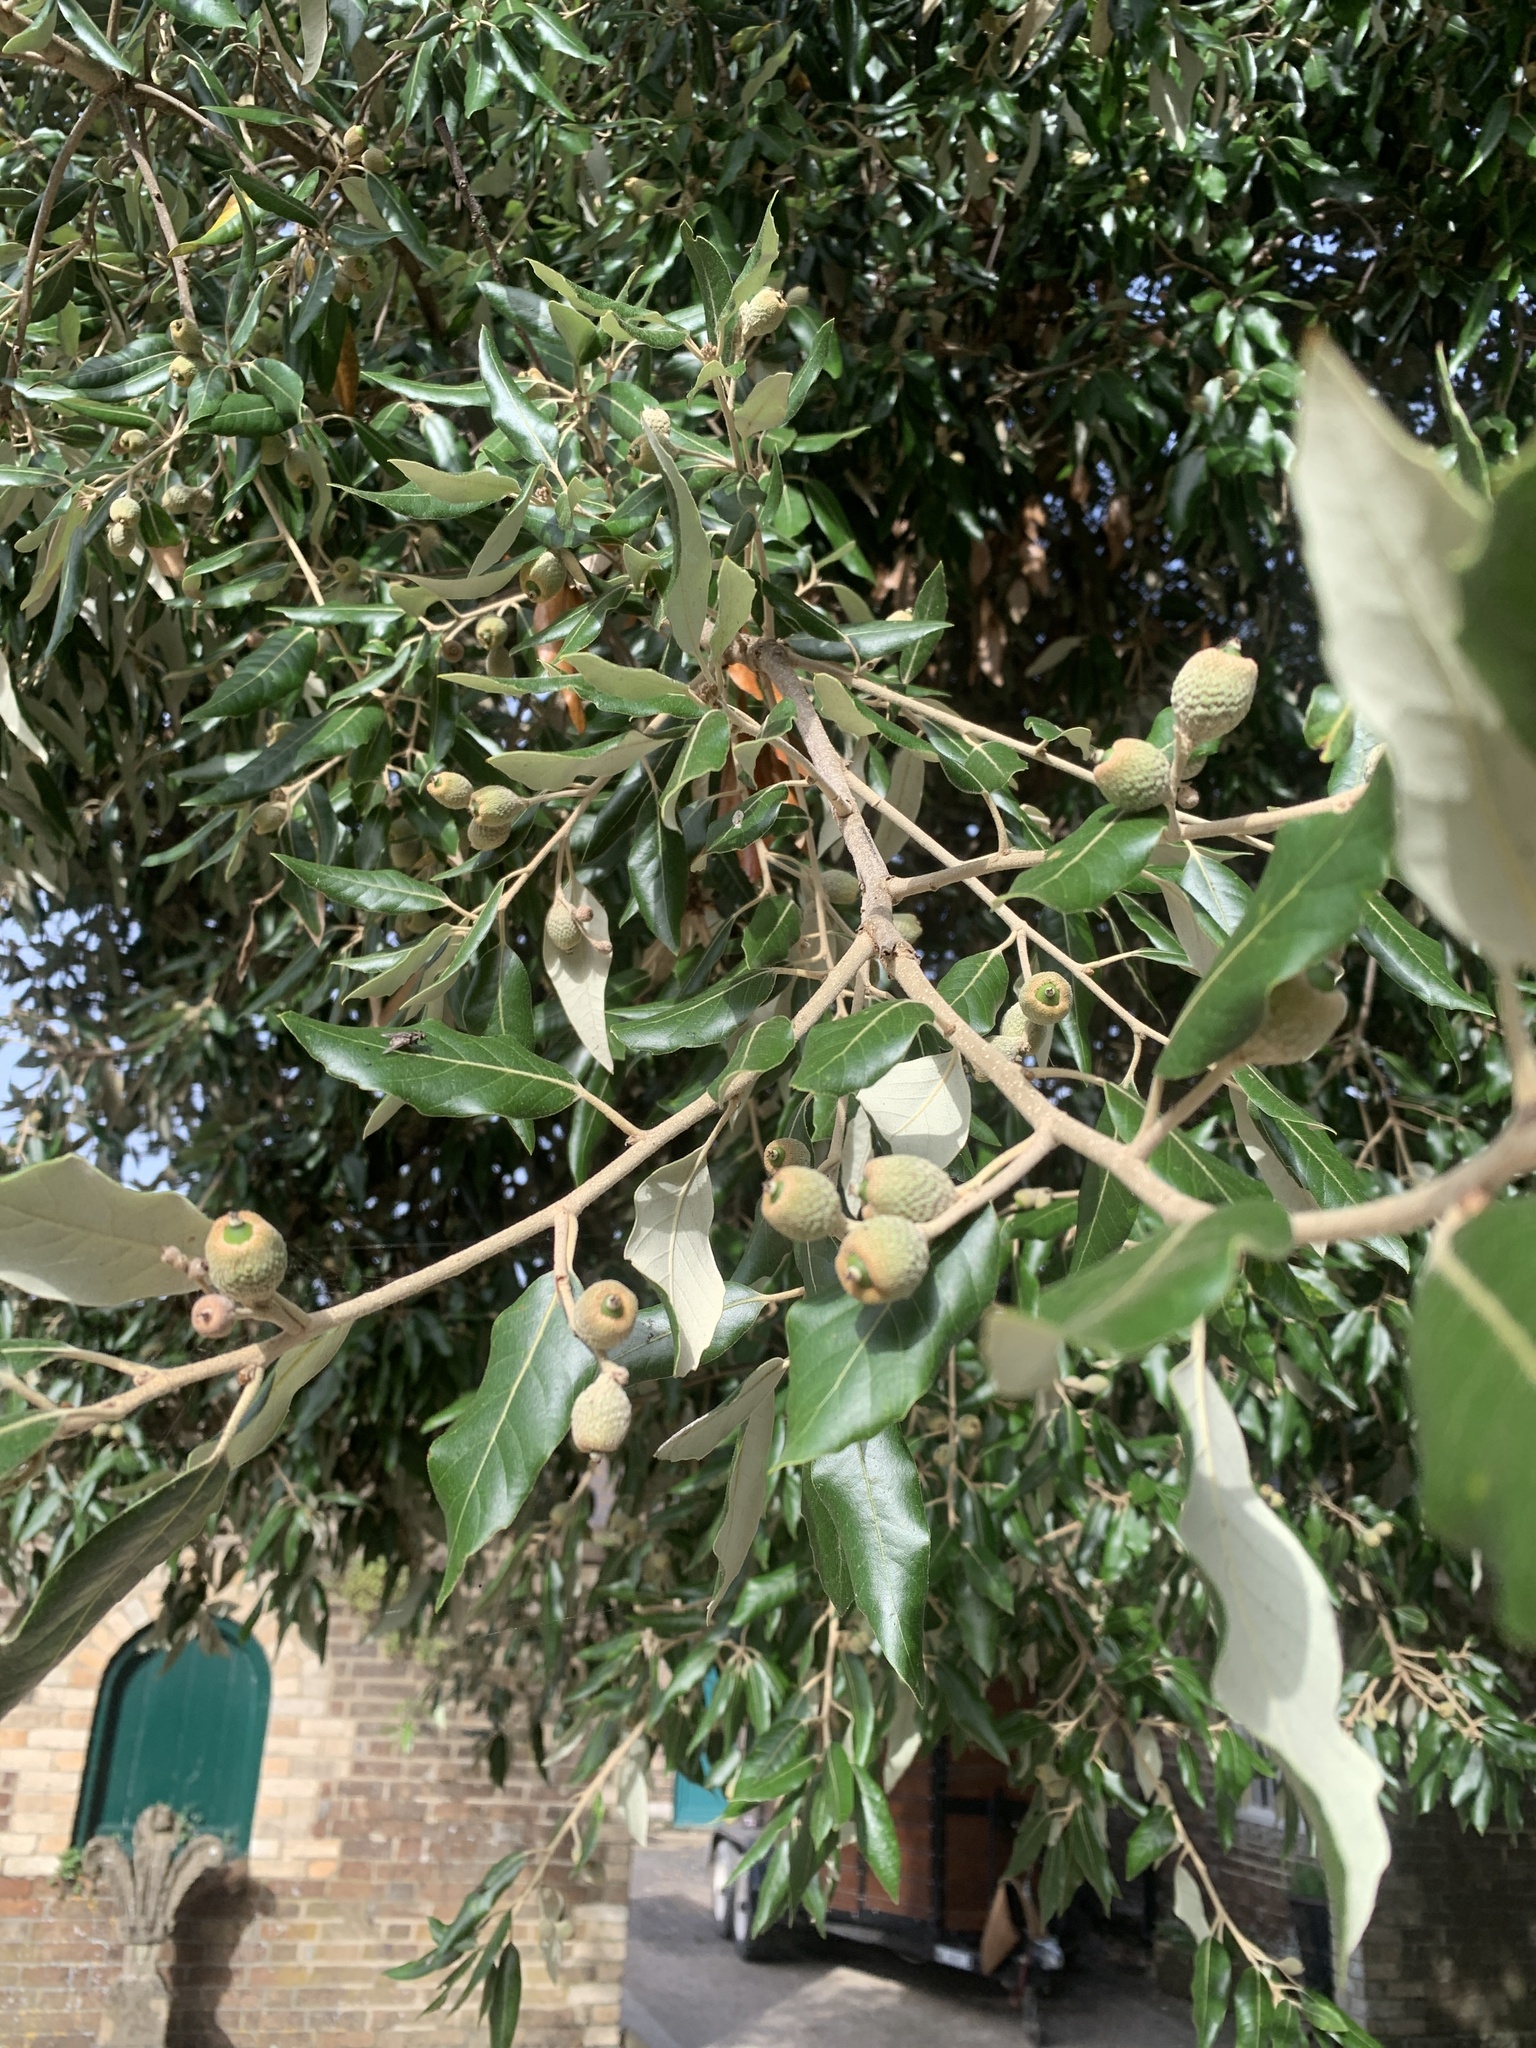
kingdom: Plantae
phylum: Tracheophyta
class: Magnoliopsida
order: Fagales
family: Fagaceae
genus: Quercus
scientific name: Quercus ilex
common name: Evergreen oak
